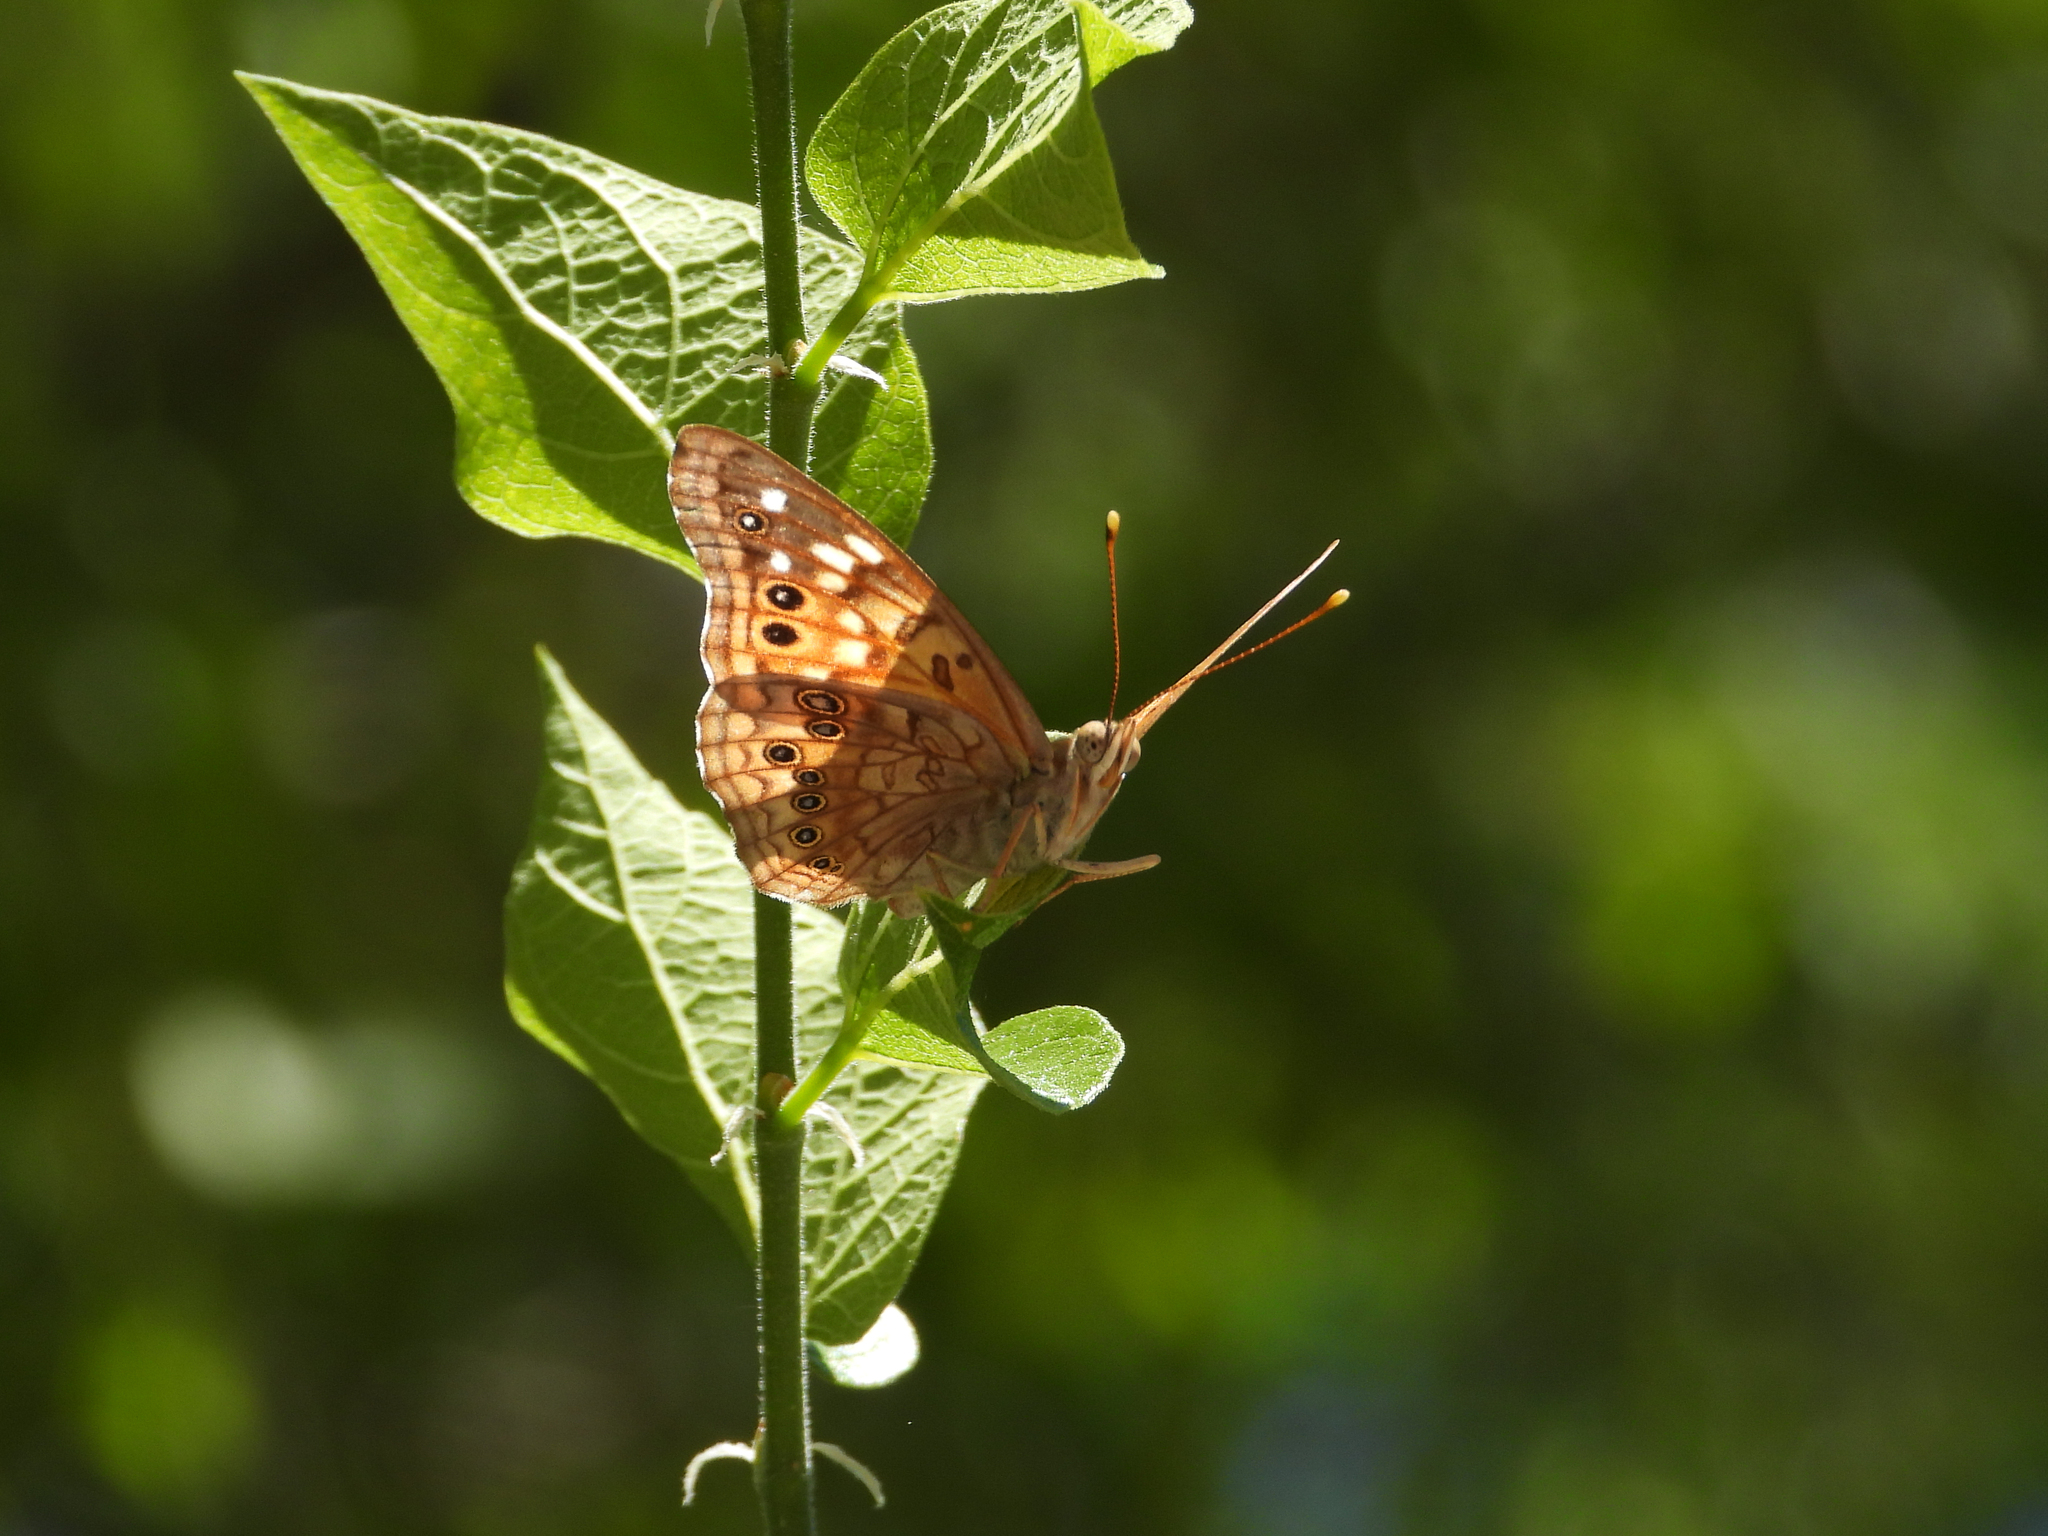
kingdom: Animalia
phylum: Arthropoda
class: Insecta
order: Lepidoptera
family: Nymphalidae
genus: Asterocampa
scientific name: Asterocampa celtis
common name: Hackberry emperor
